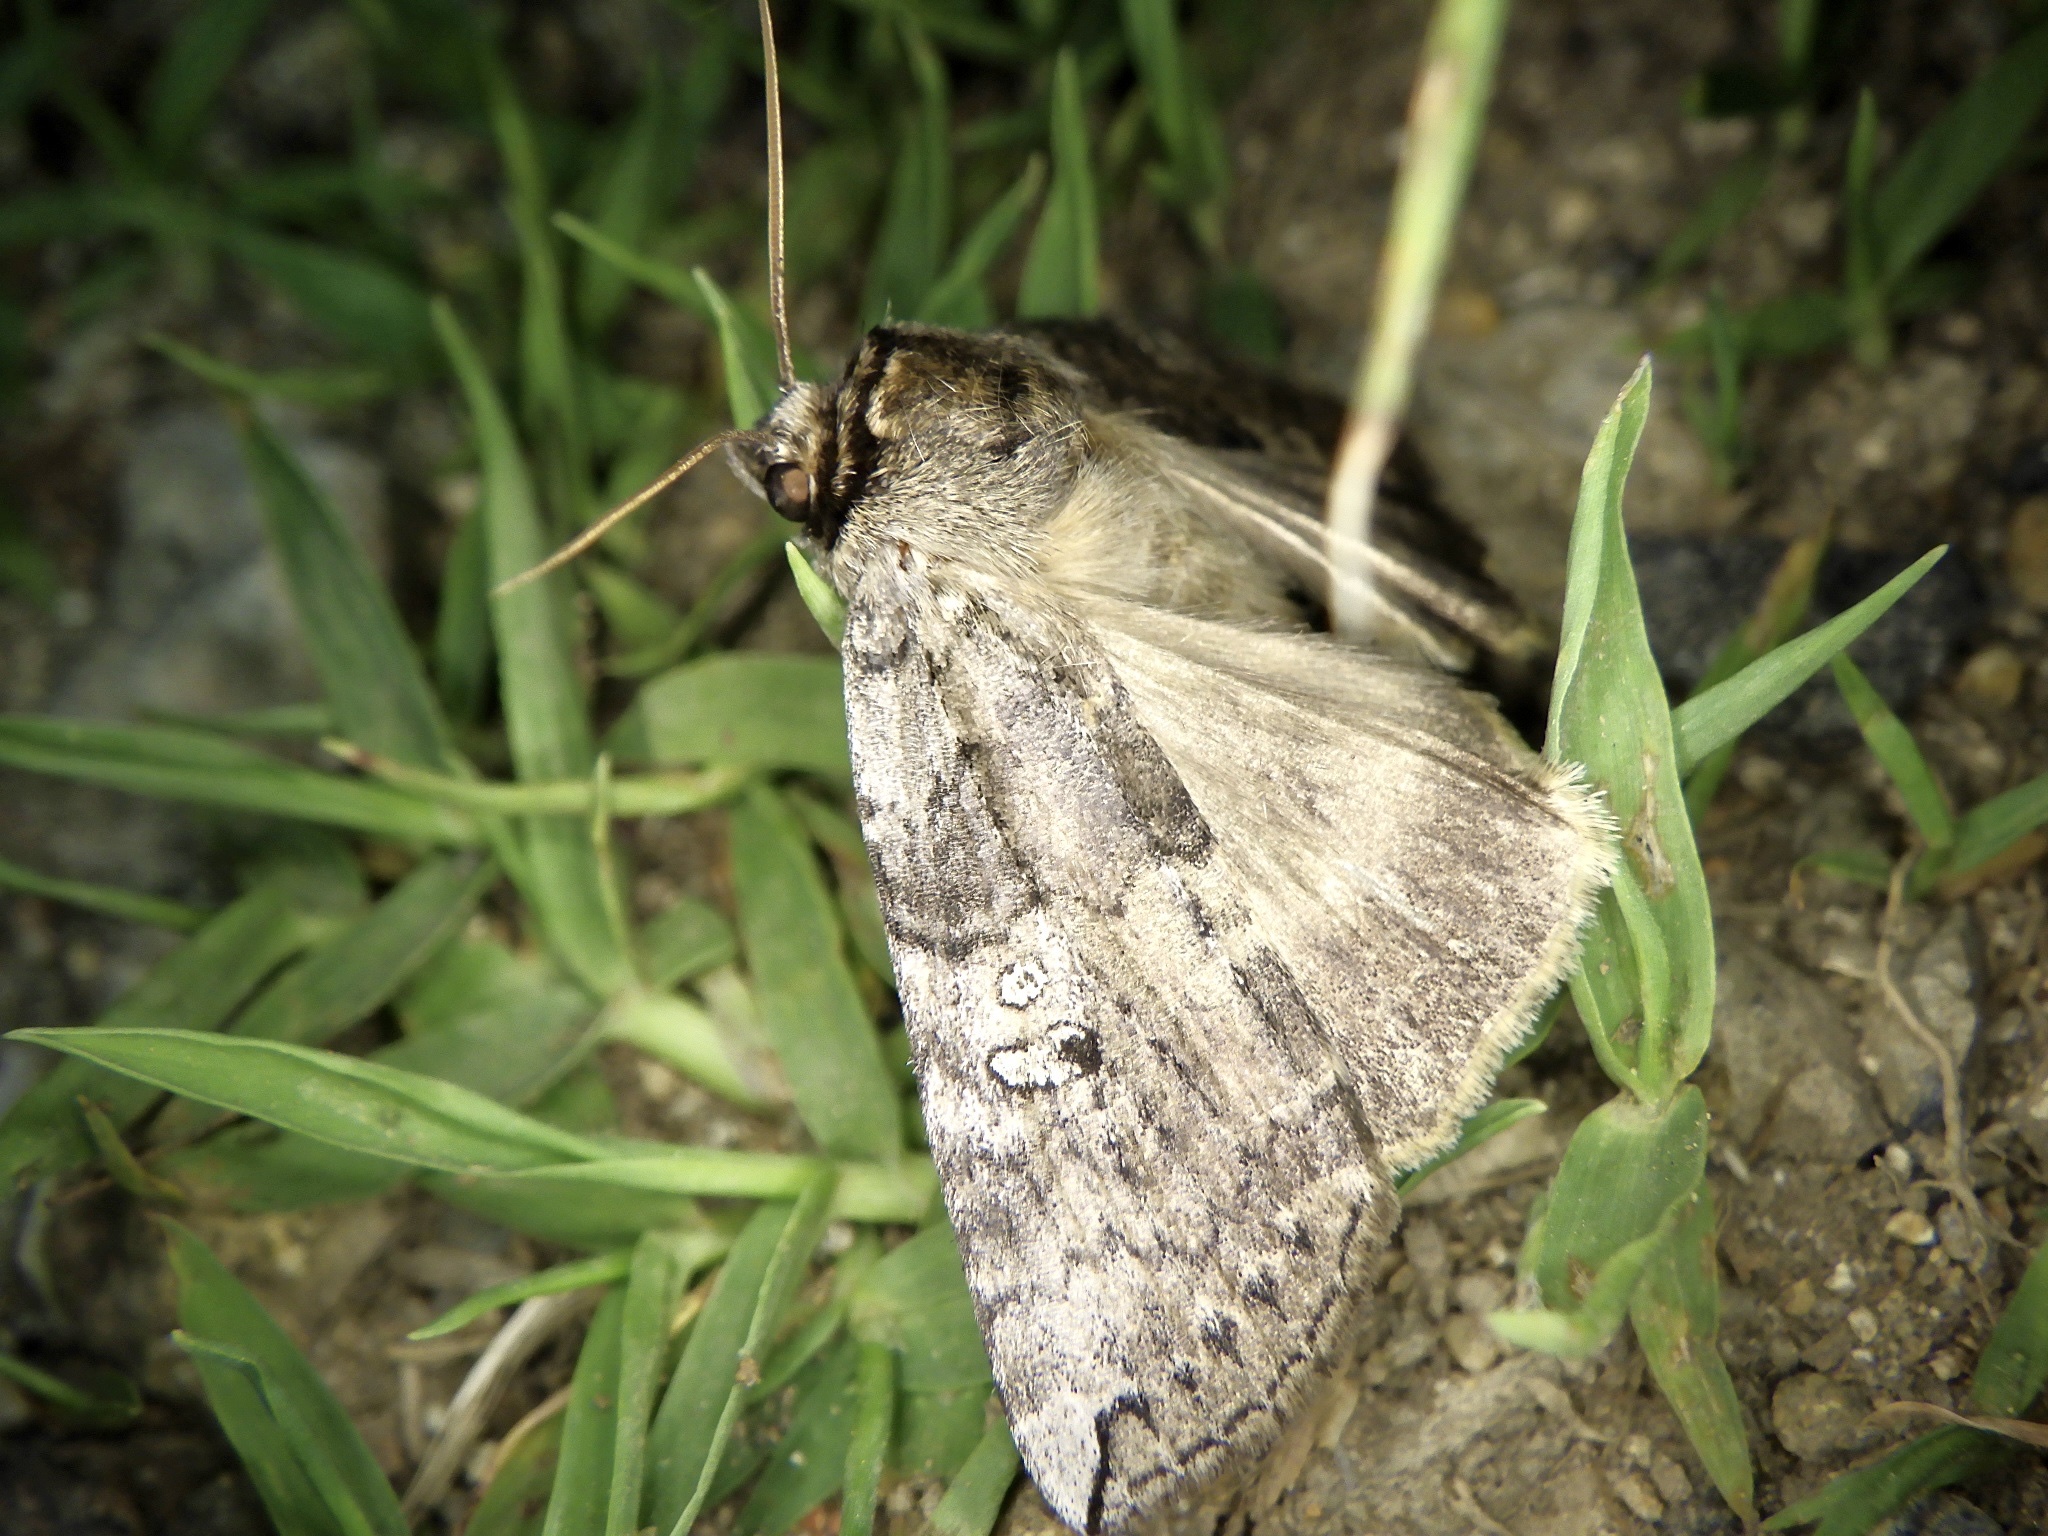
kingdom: Animalia
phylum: Arthropoda
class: Insecta
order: Lepidoptera
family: Drepanidae
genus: Tethea
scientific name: Tethea intensa
